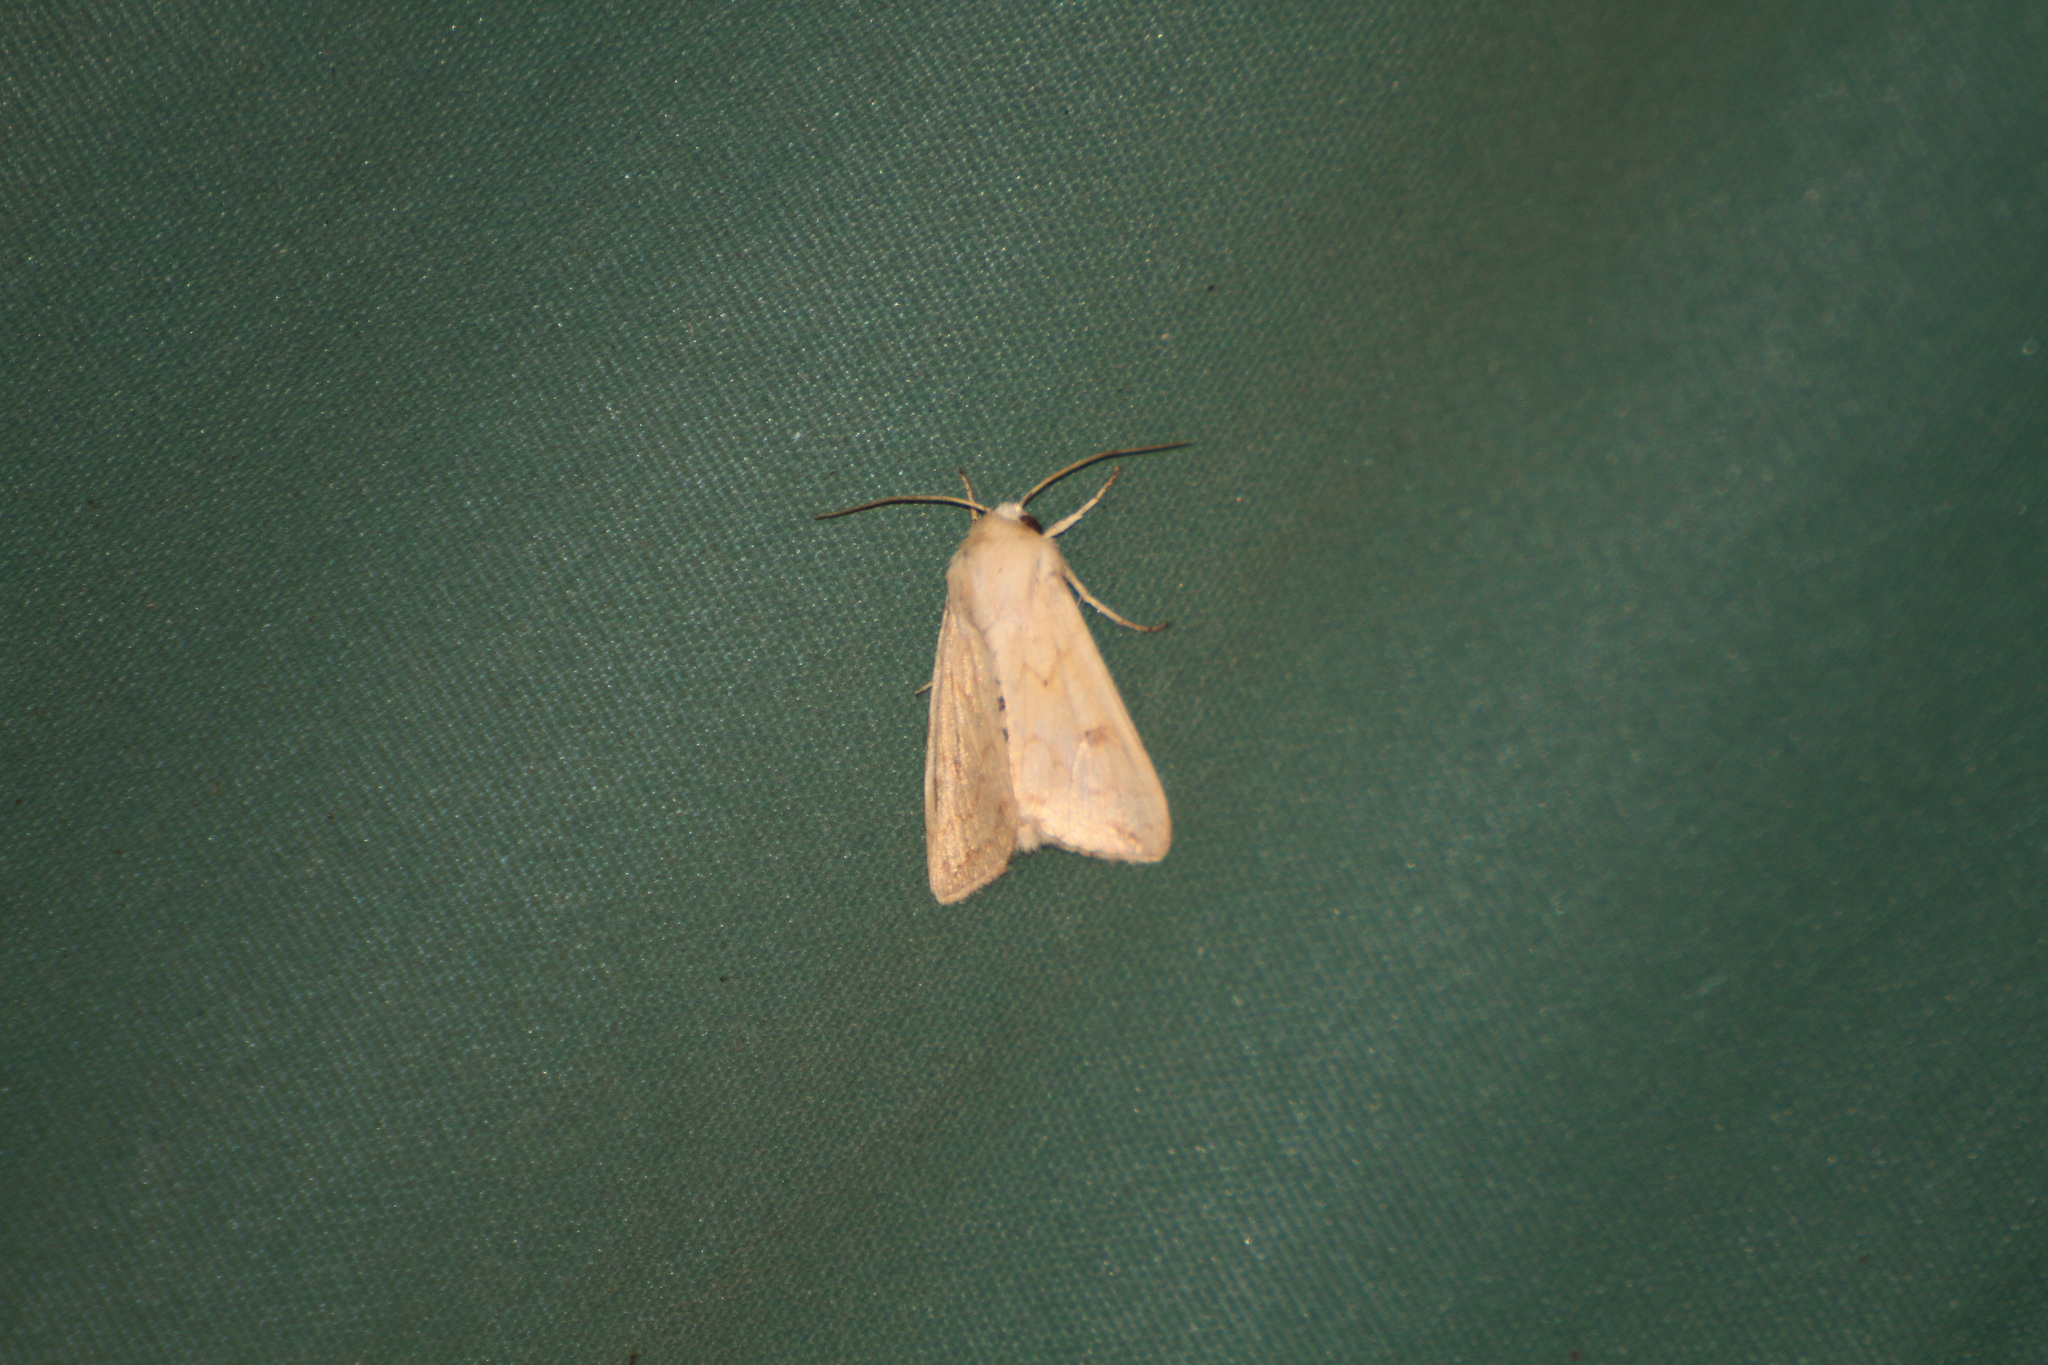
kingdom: Animalia
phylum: Arthropoda
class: Insecta
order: Lepidoptera
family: Noctuidae
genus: Mythimna
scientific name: Mythimna vitellina
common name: Delicate
